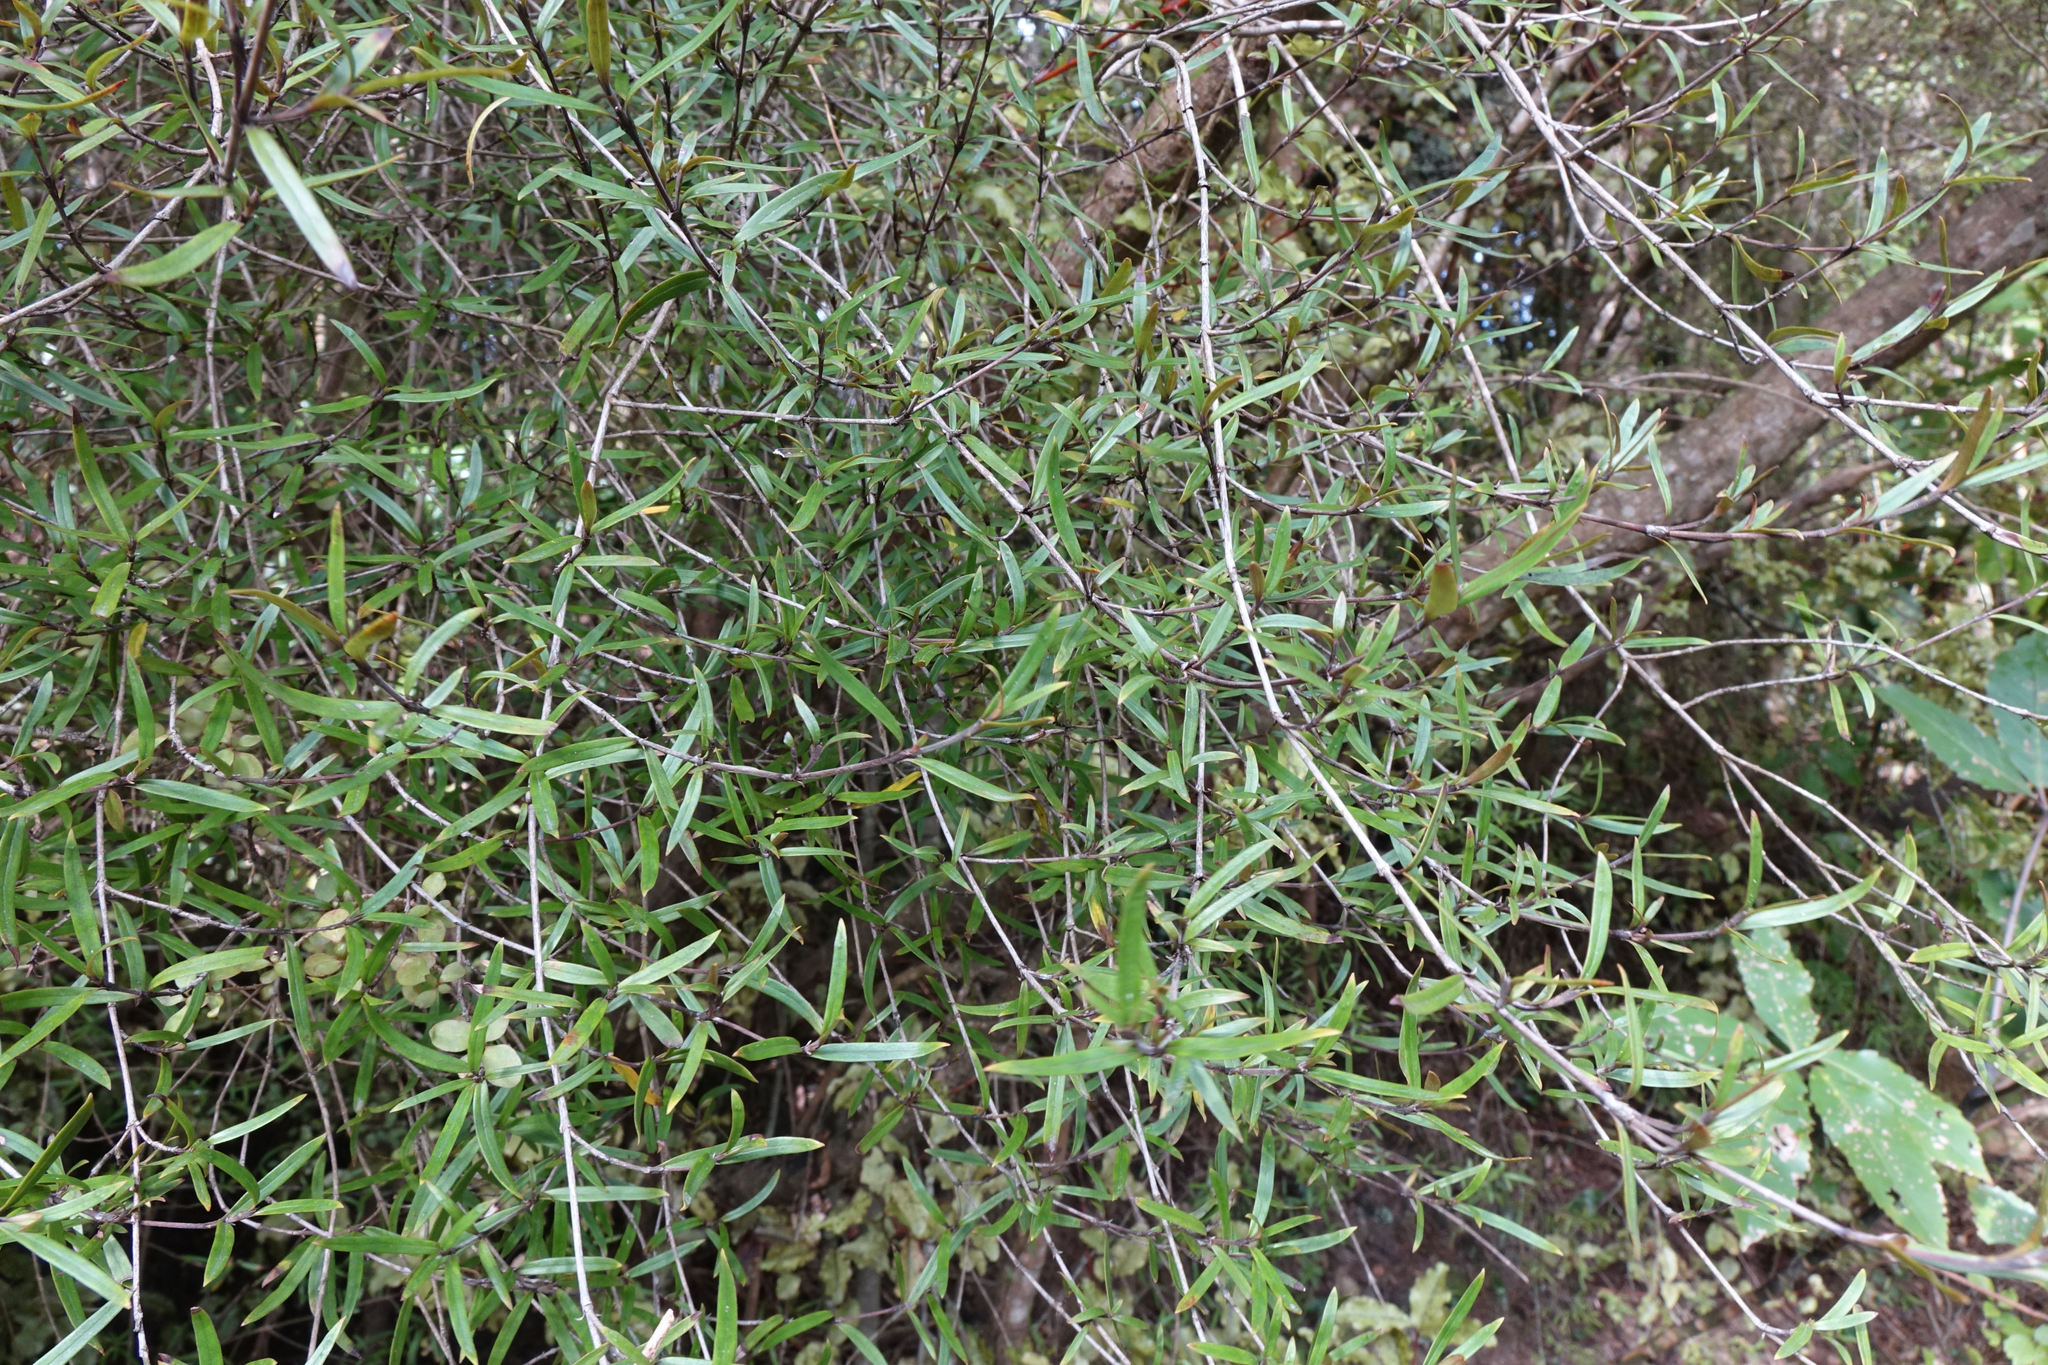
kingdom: Plantae
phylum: Tracheophyta
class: Magnoliopsida
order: Gentianales
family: Rubiaceae
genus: Coprosma
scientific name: Coprosma linariifolia
